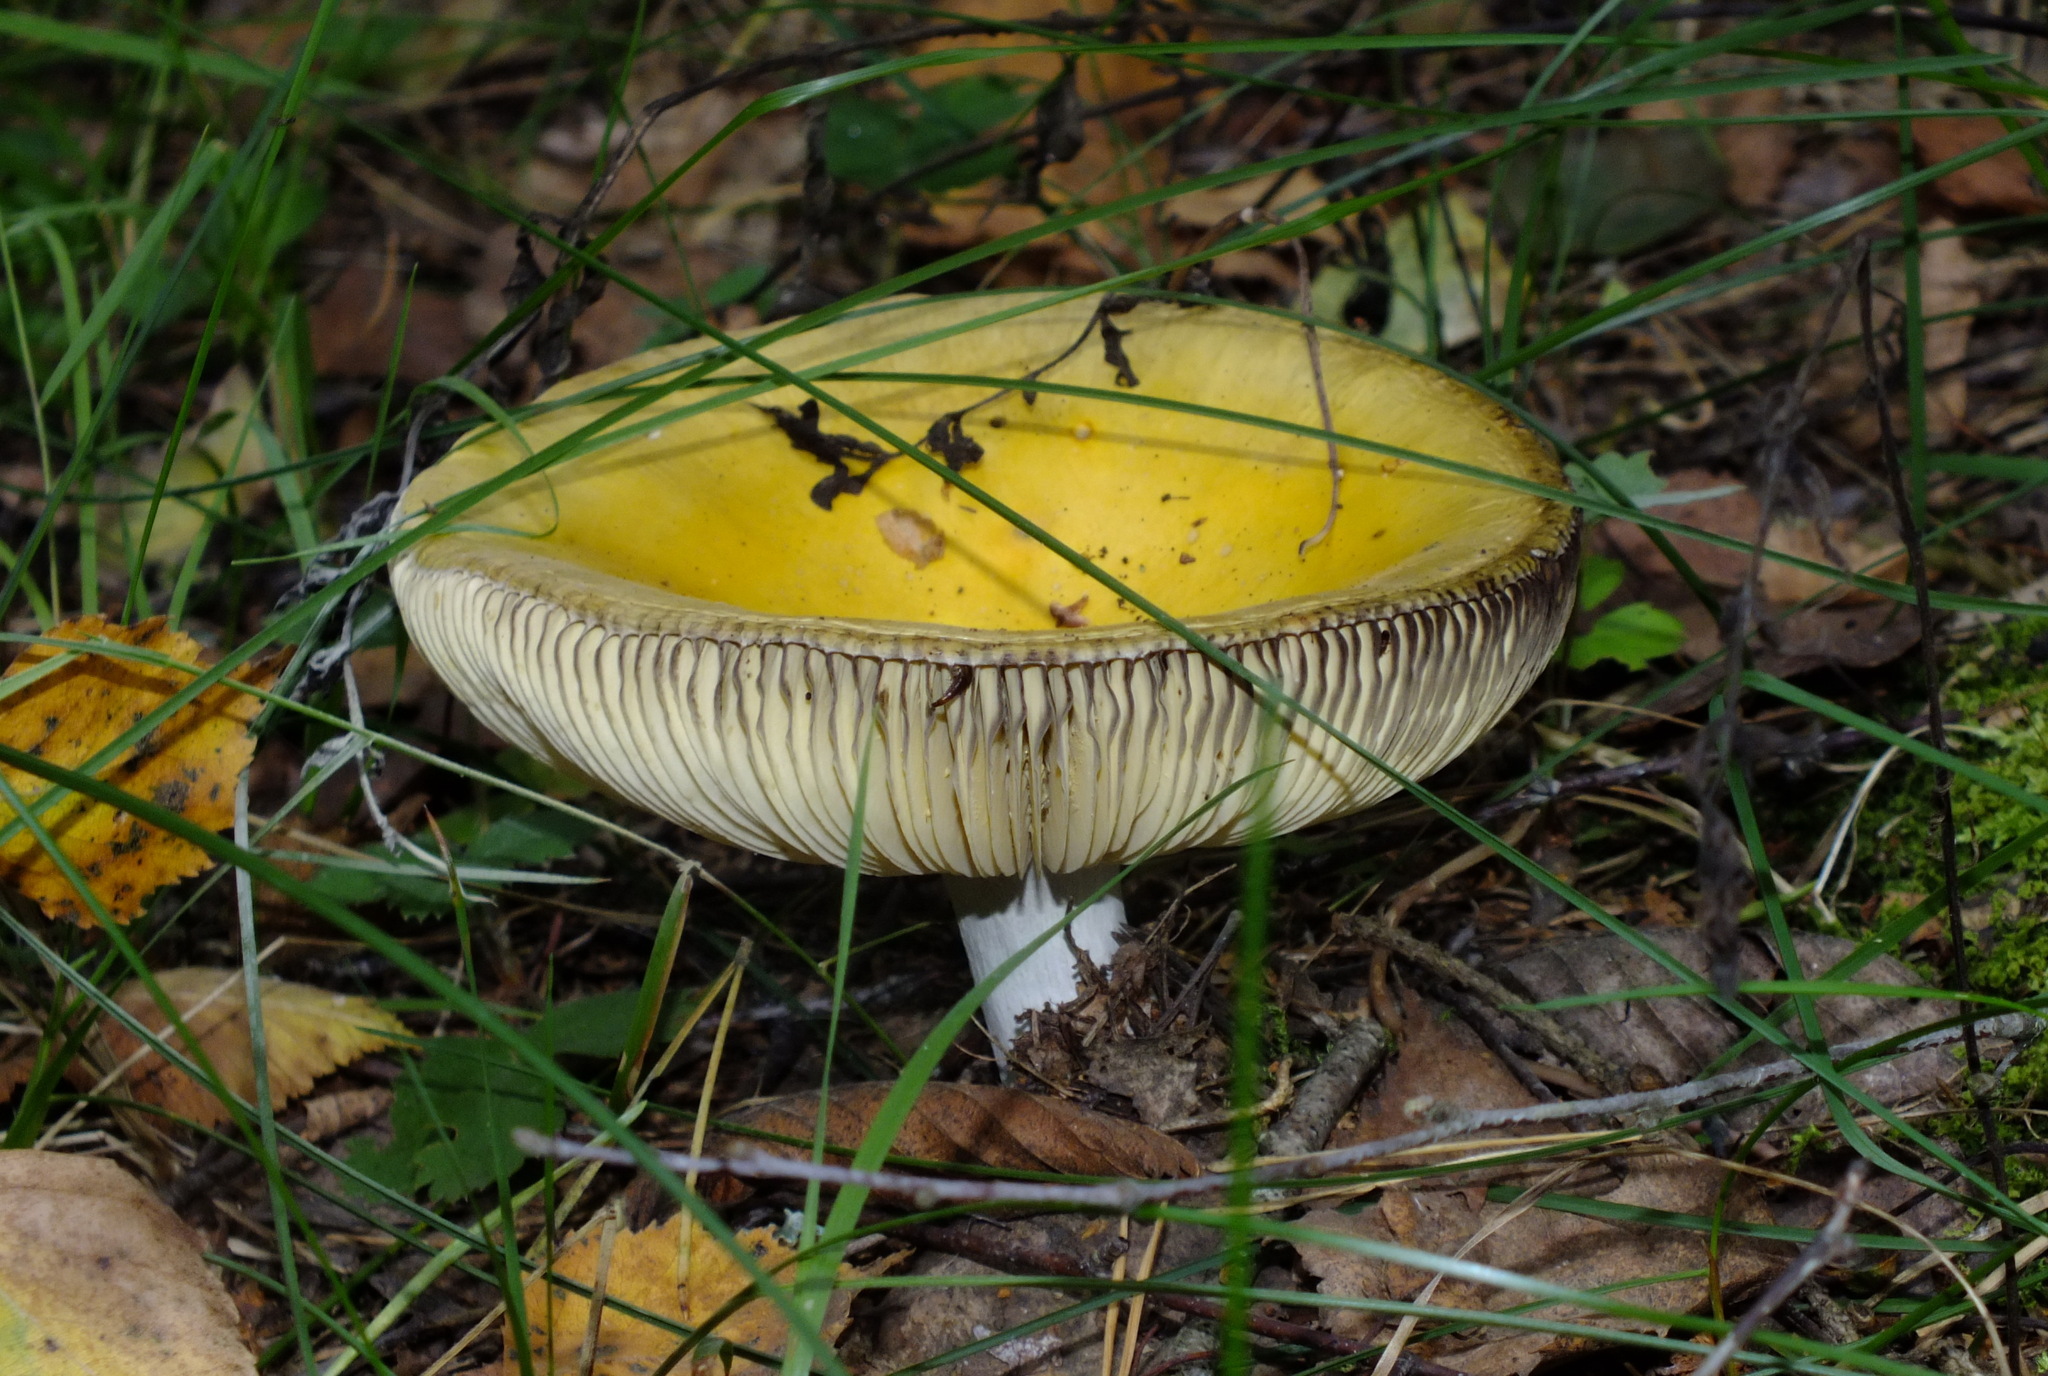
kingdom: Fungi
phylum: Basidiomycota
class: Agaricomycetes
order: Russulales
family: Russulaceae
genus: Russula
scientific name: Russula claroflava
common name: The yellow swamp brittlegill
